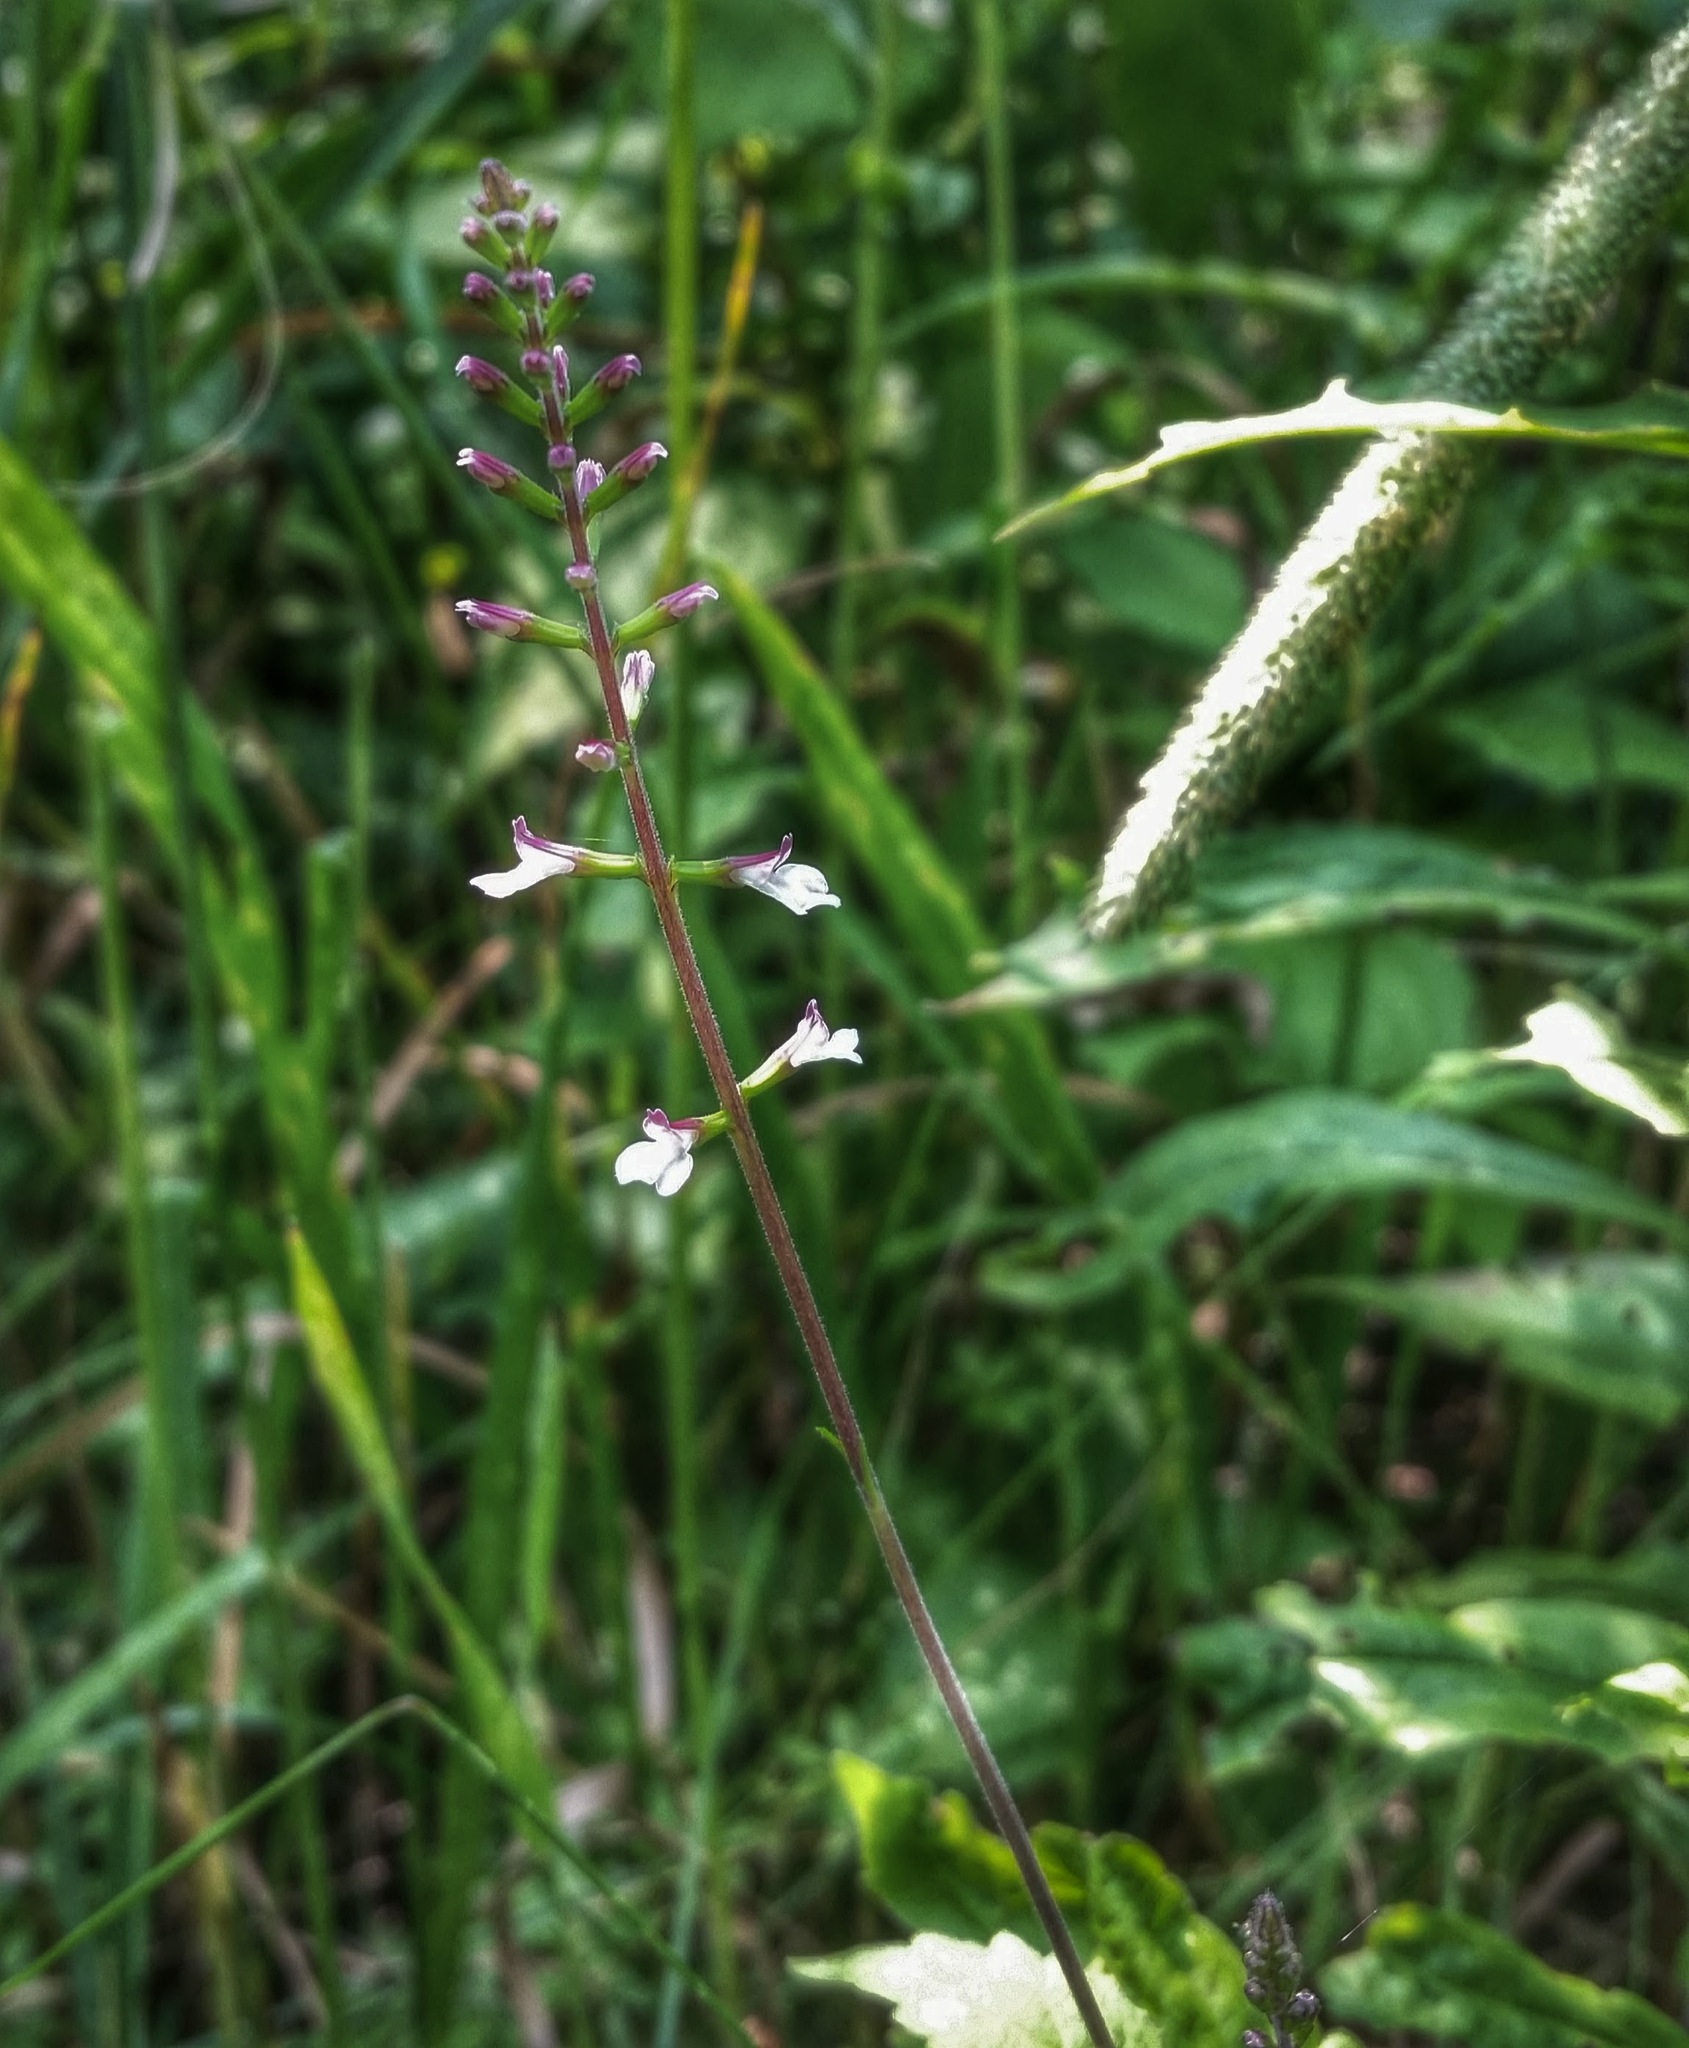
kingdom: Plantae
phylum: Tracheophyta
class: Magnoliopsida
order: Lamiales
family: Phrymaceae
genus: Phryma
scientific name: Phryma leptostachya
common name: American lopseed
